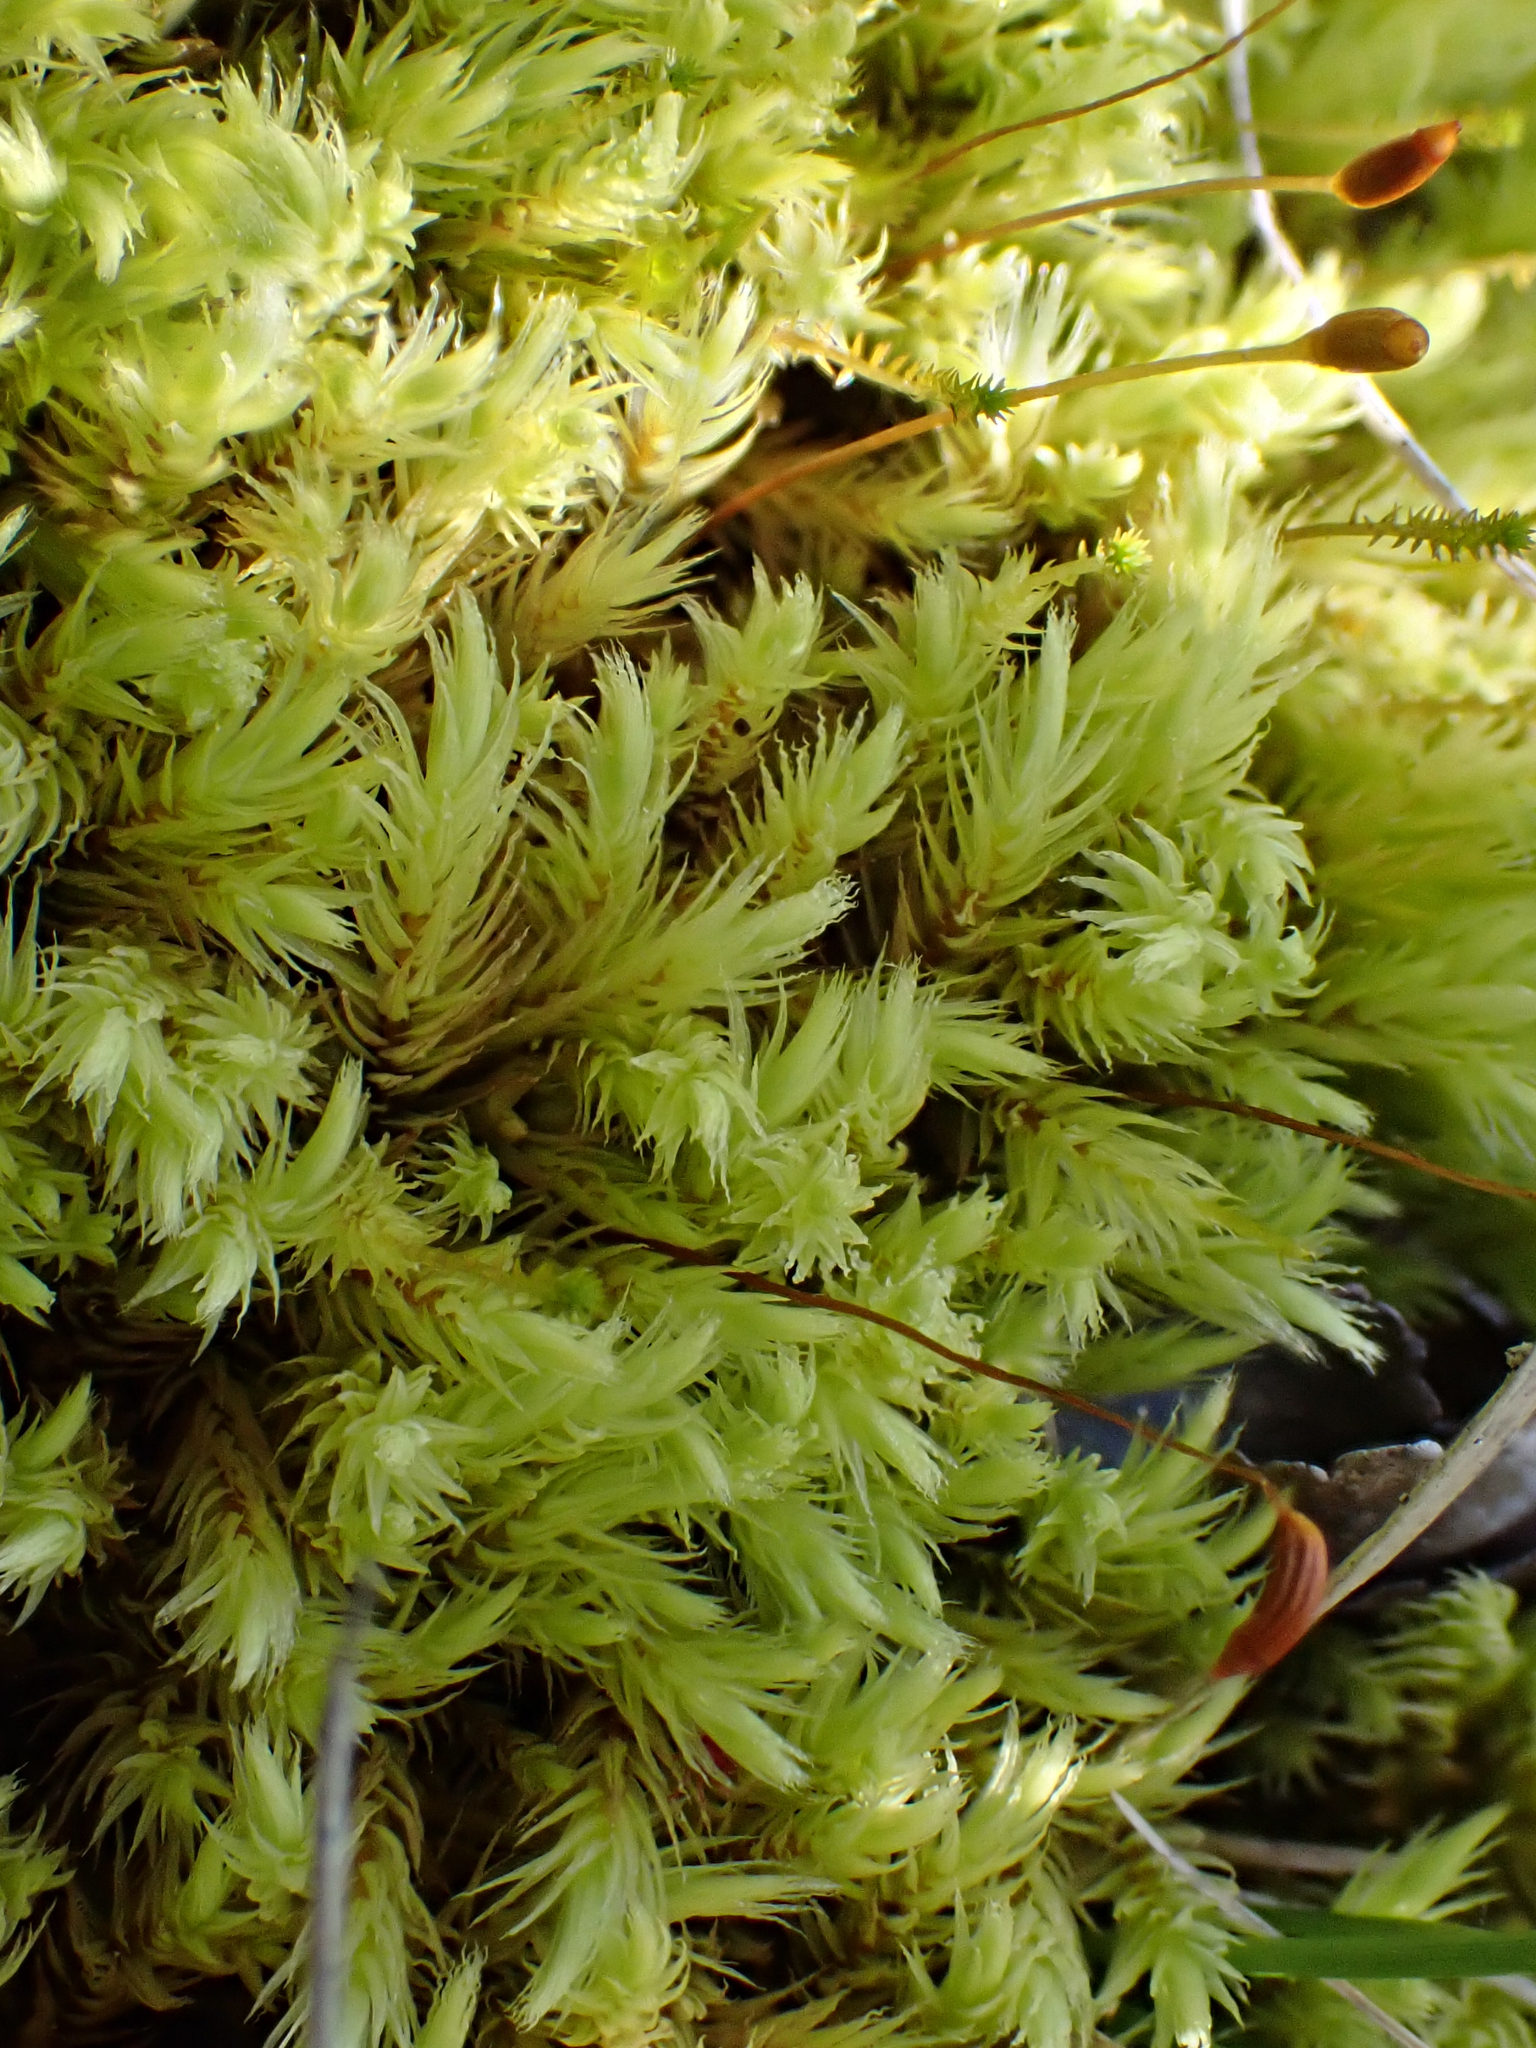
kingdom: Plantae
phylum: Bryophyta
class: Bryopsida
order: Aulacomniales
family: Aulacomniaceae
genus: Aulacomnium
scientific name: Aulacomnium palustre
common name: Bog groove-moss
